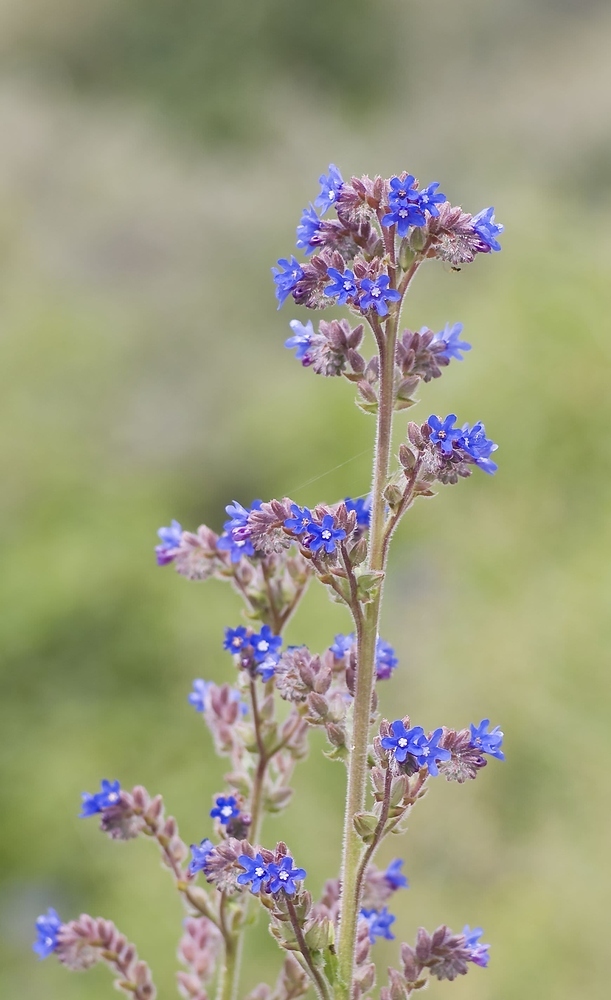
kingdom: Plantae
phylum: Tracheophyta
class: Magnoliopsida
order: Boraginales
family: Boraginaceae
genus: Anchusa
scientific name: Anchusa officinalis
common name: Alkanet
